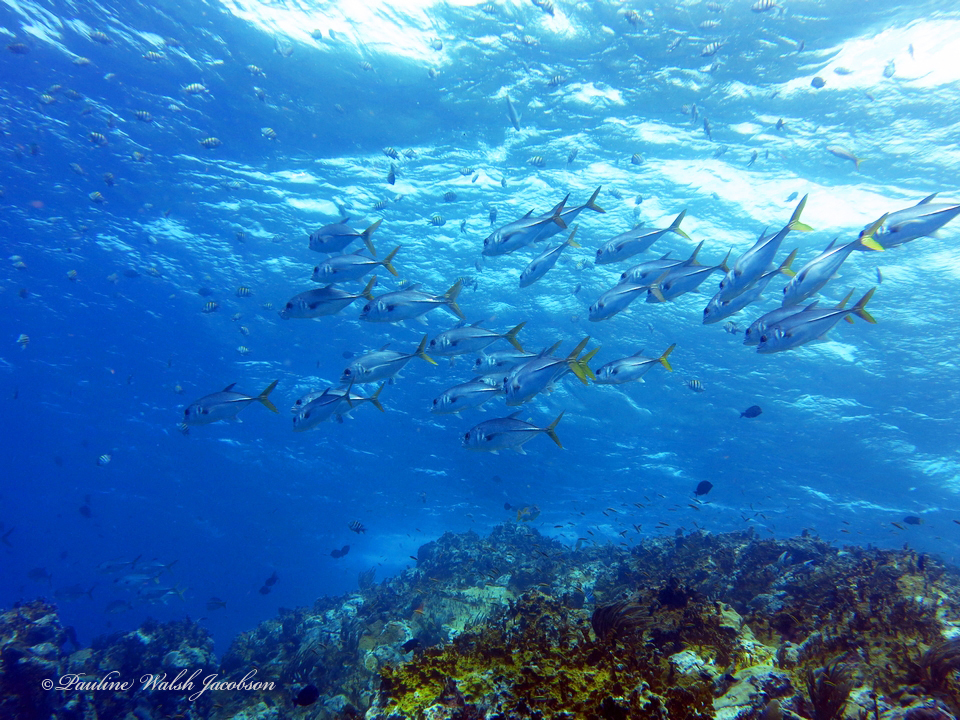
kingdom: Animalia
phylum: Chordata
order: Perciformes
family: Carangidae
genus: Caranx
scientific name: Caranx latus
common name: Horse eye jack
